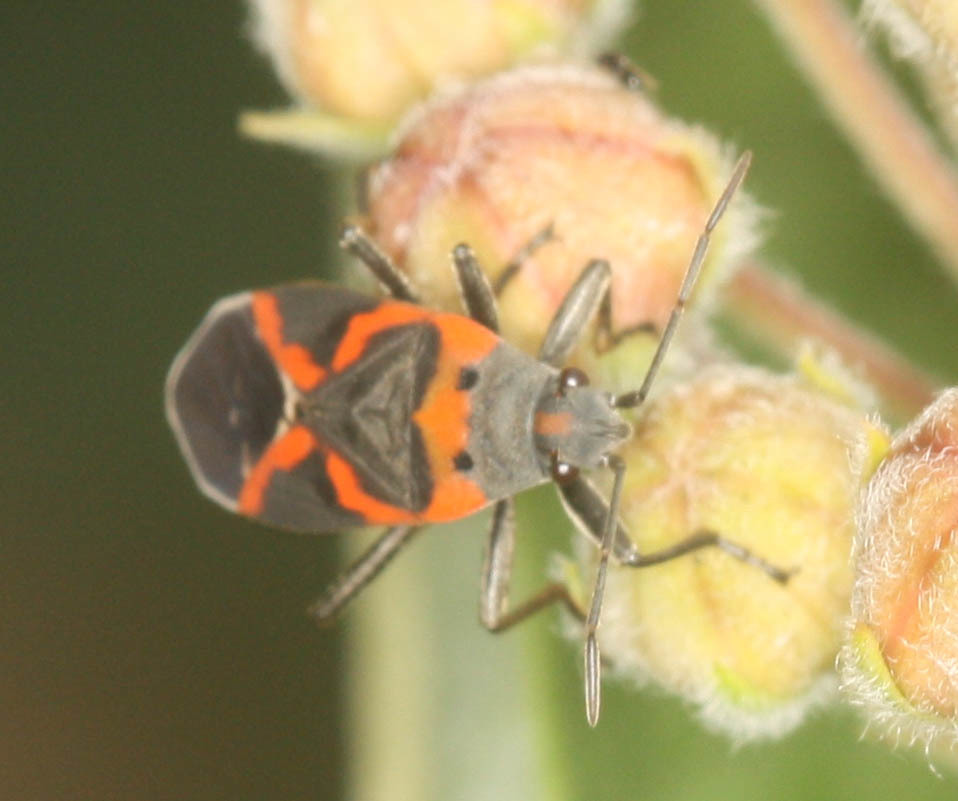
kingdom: Animalia
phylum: Arthropoda
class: Insecta
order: Hemiptera
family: Lygaeidae
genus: Lygaeus
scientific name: Lygaeus kalmii
